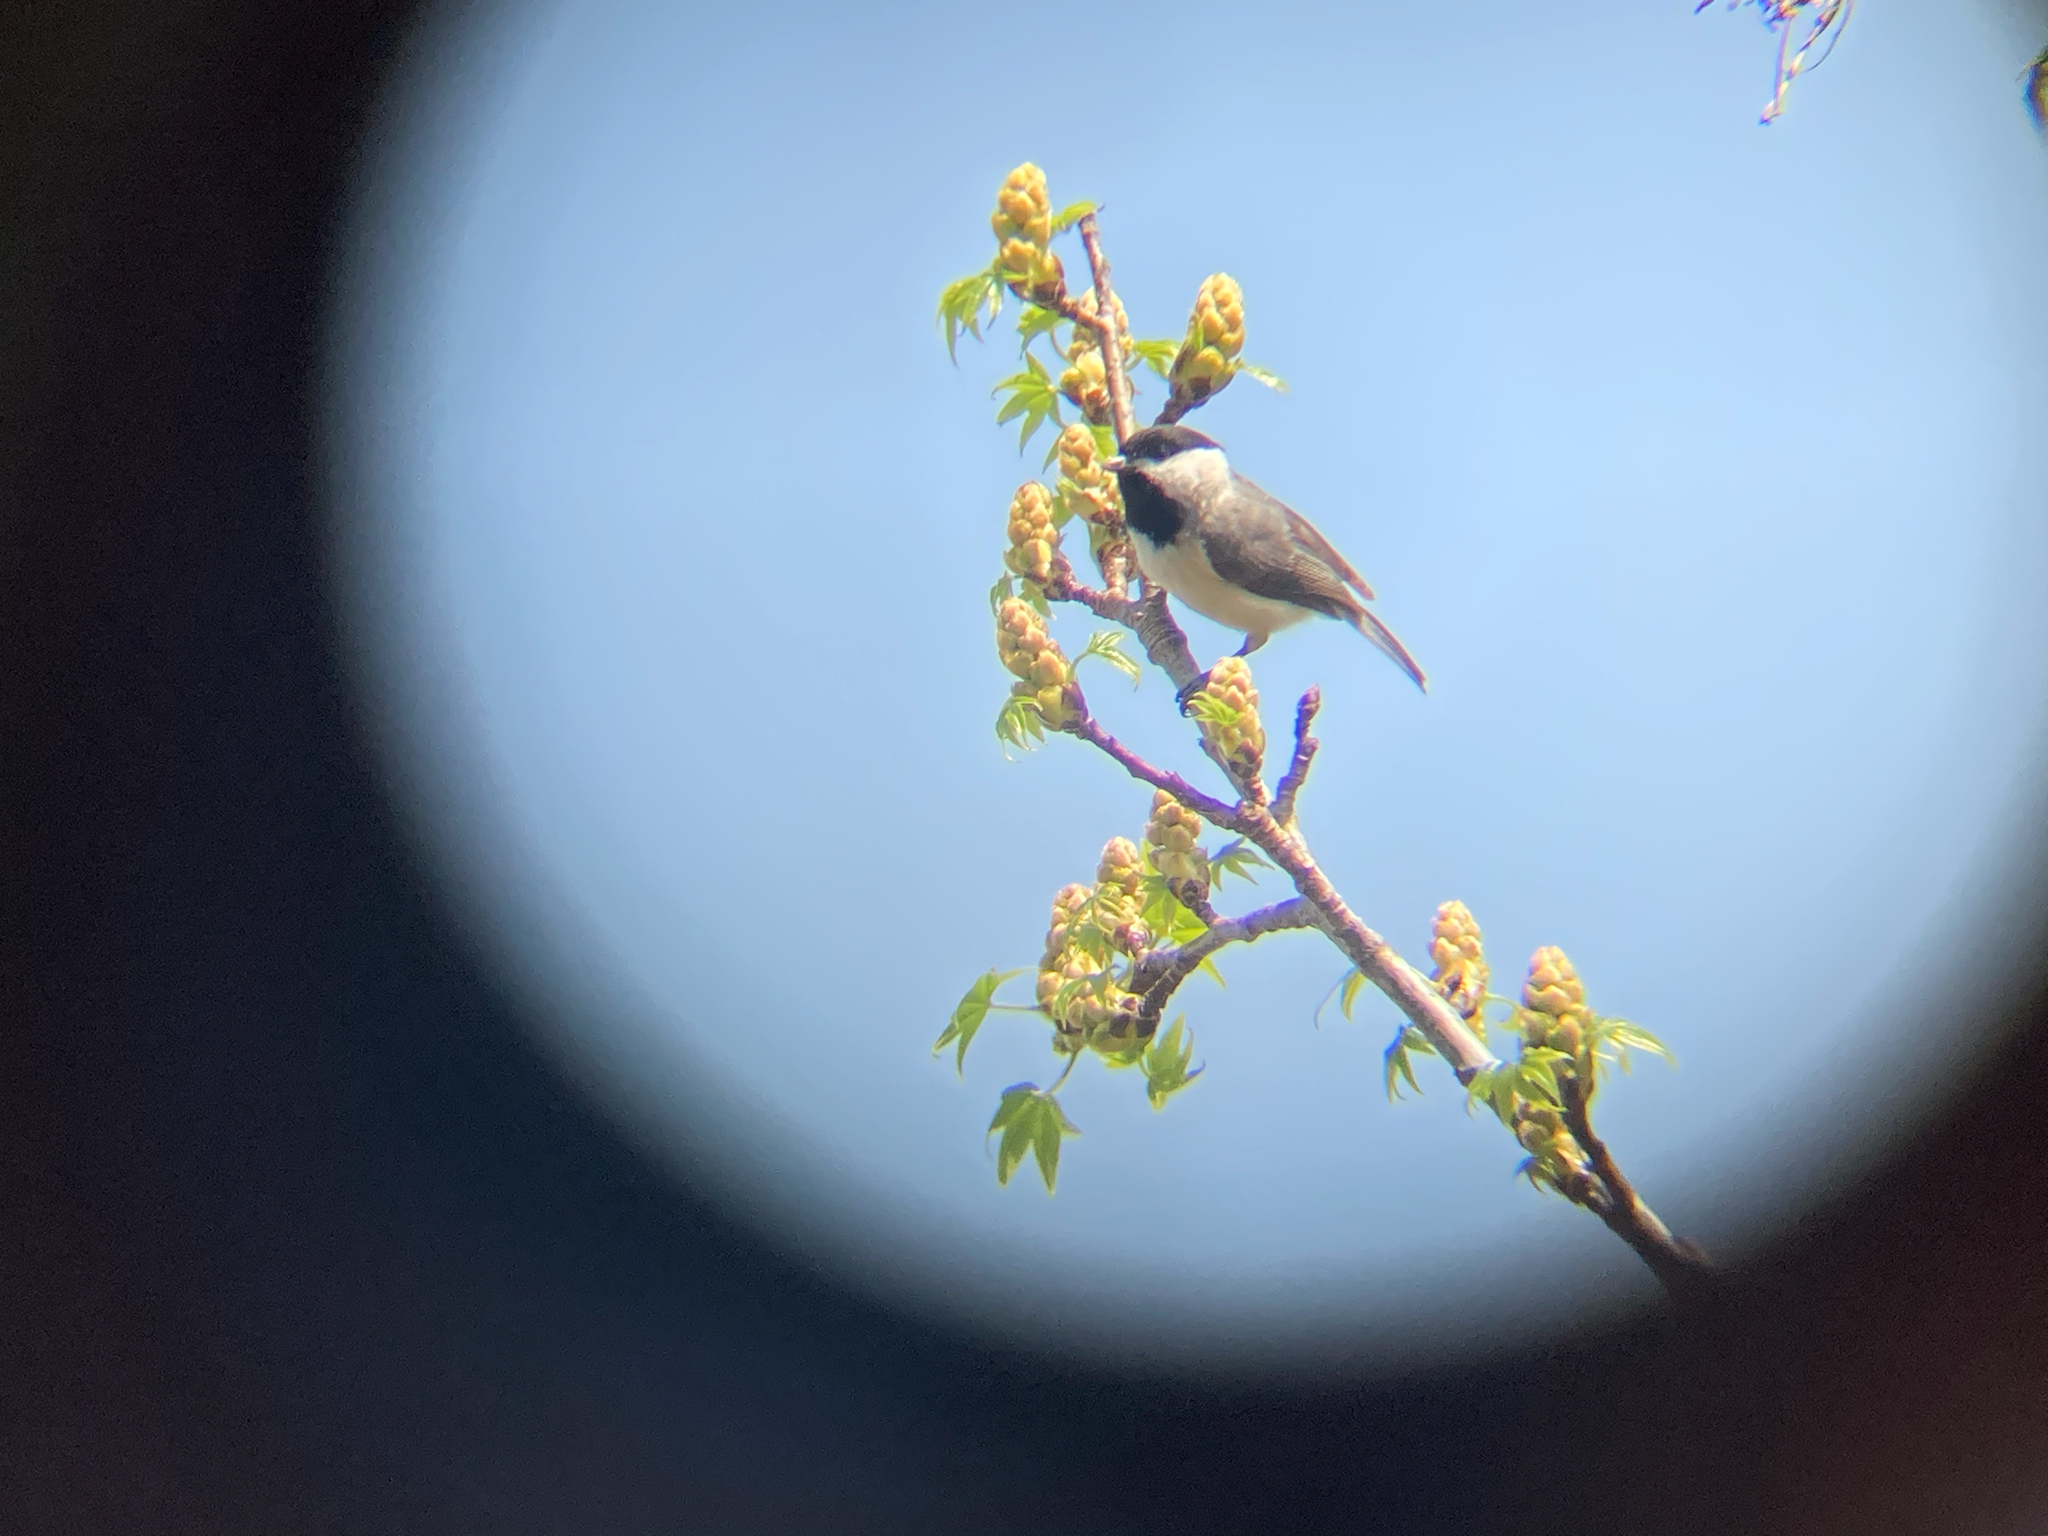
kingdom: Animalia
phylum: Chordata
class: Aves
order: Passeriformes
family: Paridae
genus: Poecile
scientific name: Poecile carolinensis
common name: Carolina chickadee
